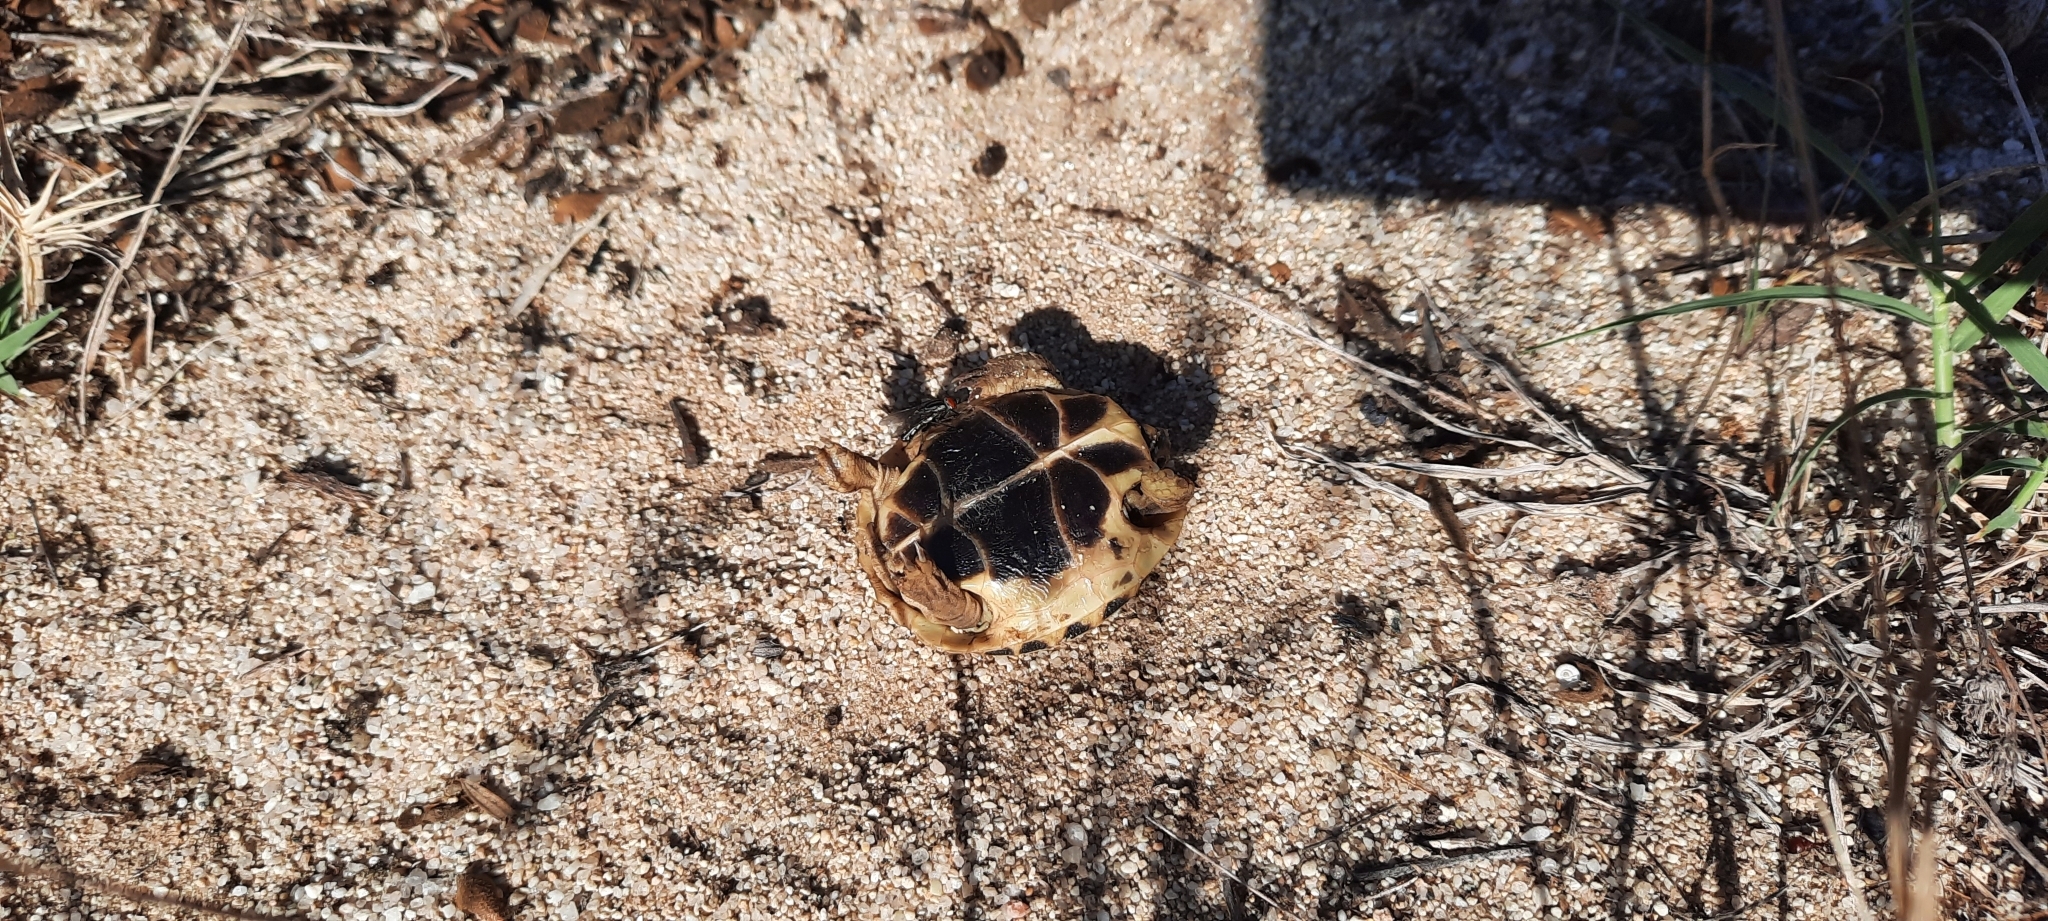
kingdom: Animalia
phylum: Chordata
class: Testudines
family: Testudinidae
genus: Testudo
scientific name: Testudo hermanni
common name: Hermann's tortoise
